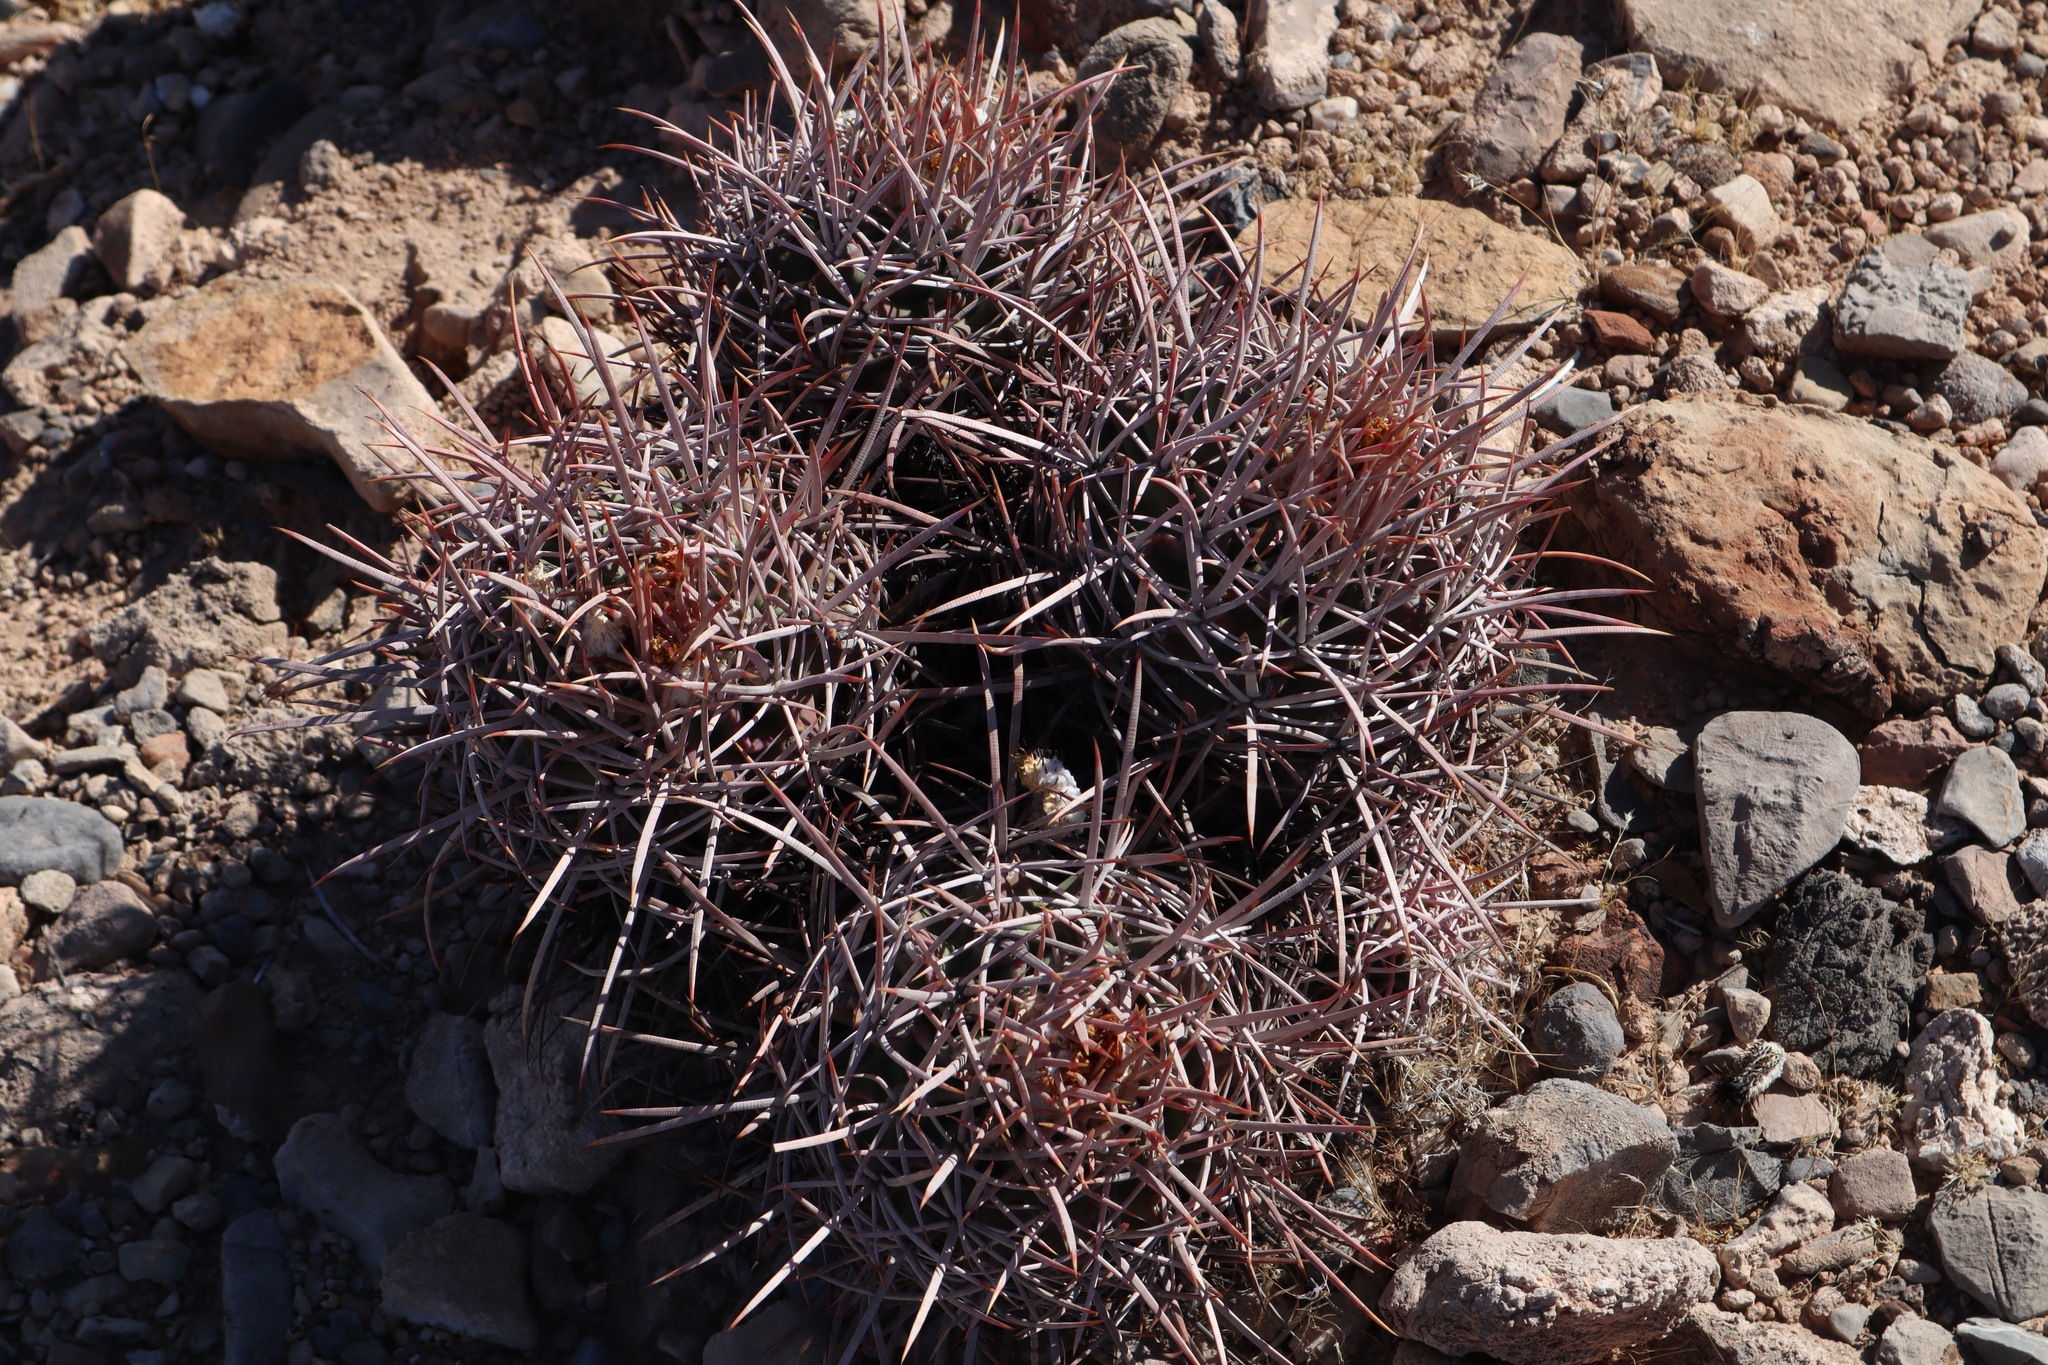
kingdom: Plantae
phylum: Tracheophyta
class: Magnoliopsida
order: Caryophyllales
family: Cactaceae
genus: Echinocactus
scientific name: Echinocactus polycephalus
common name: Cottontop cactus
